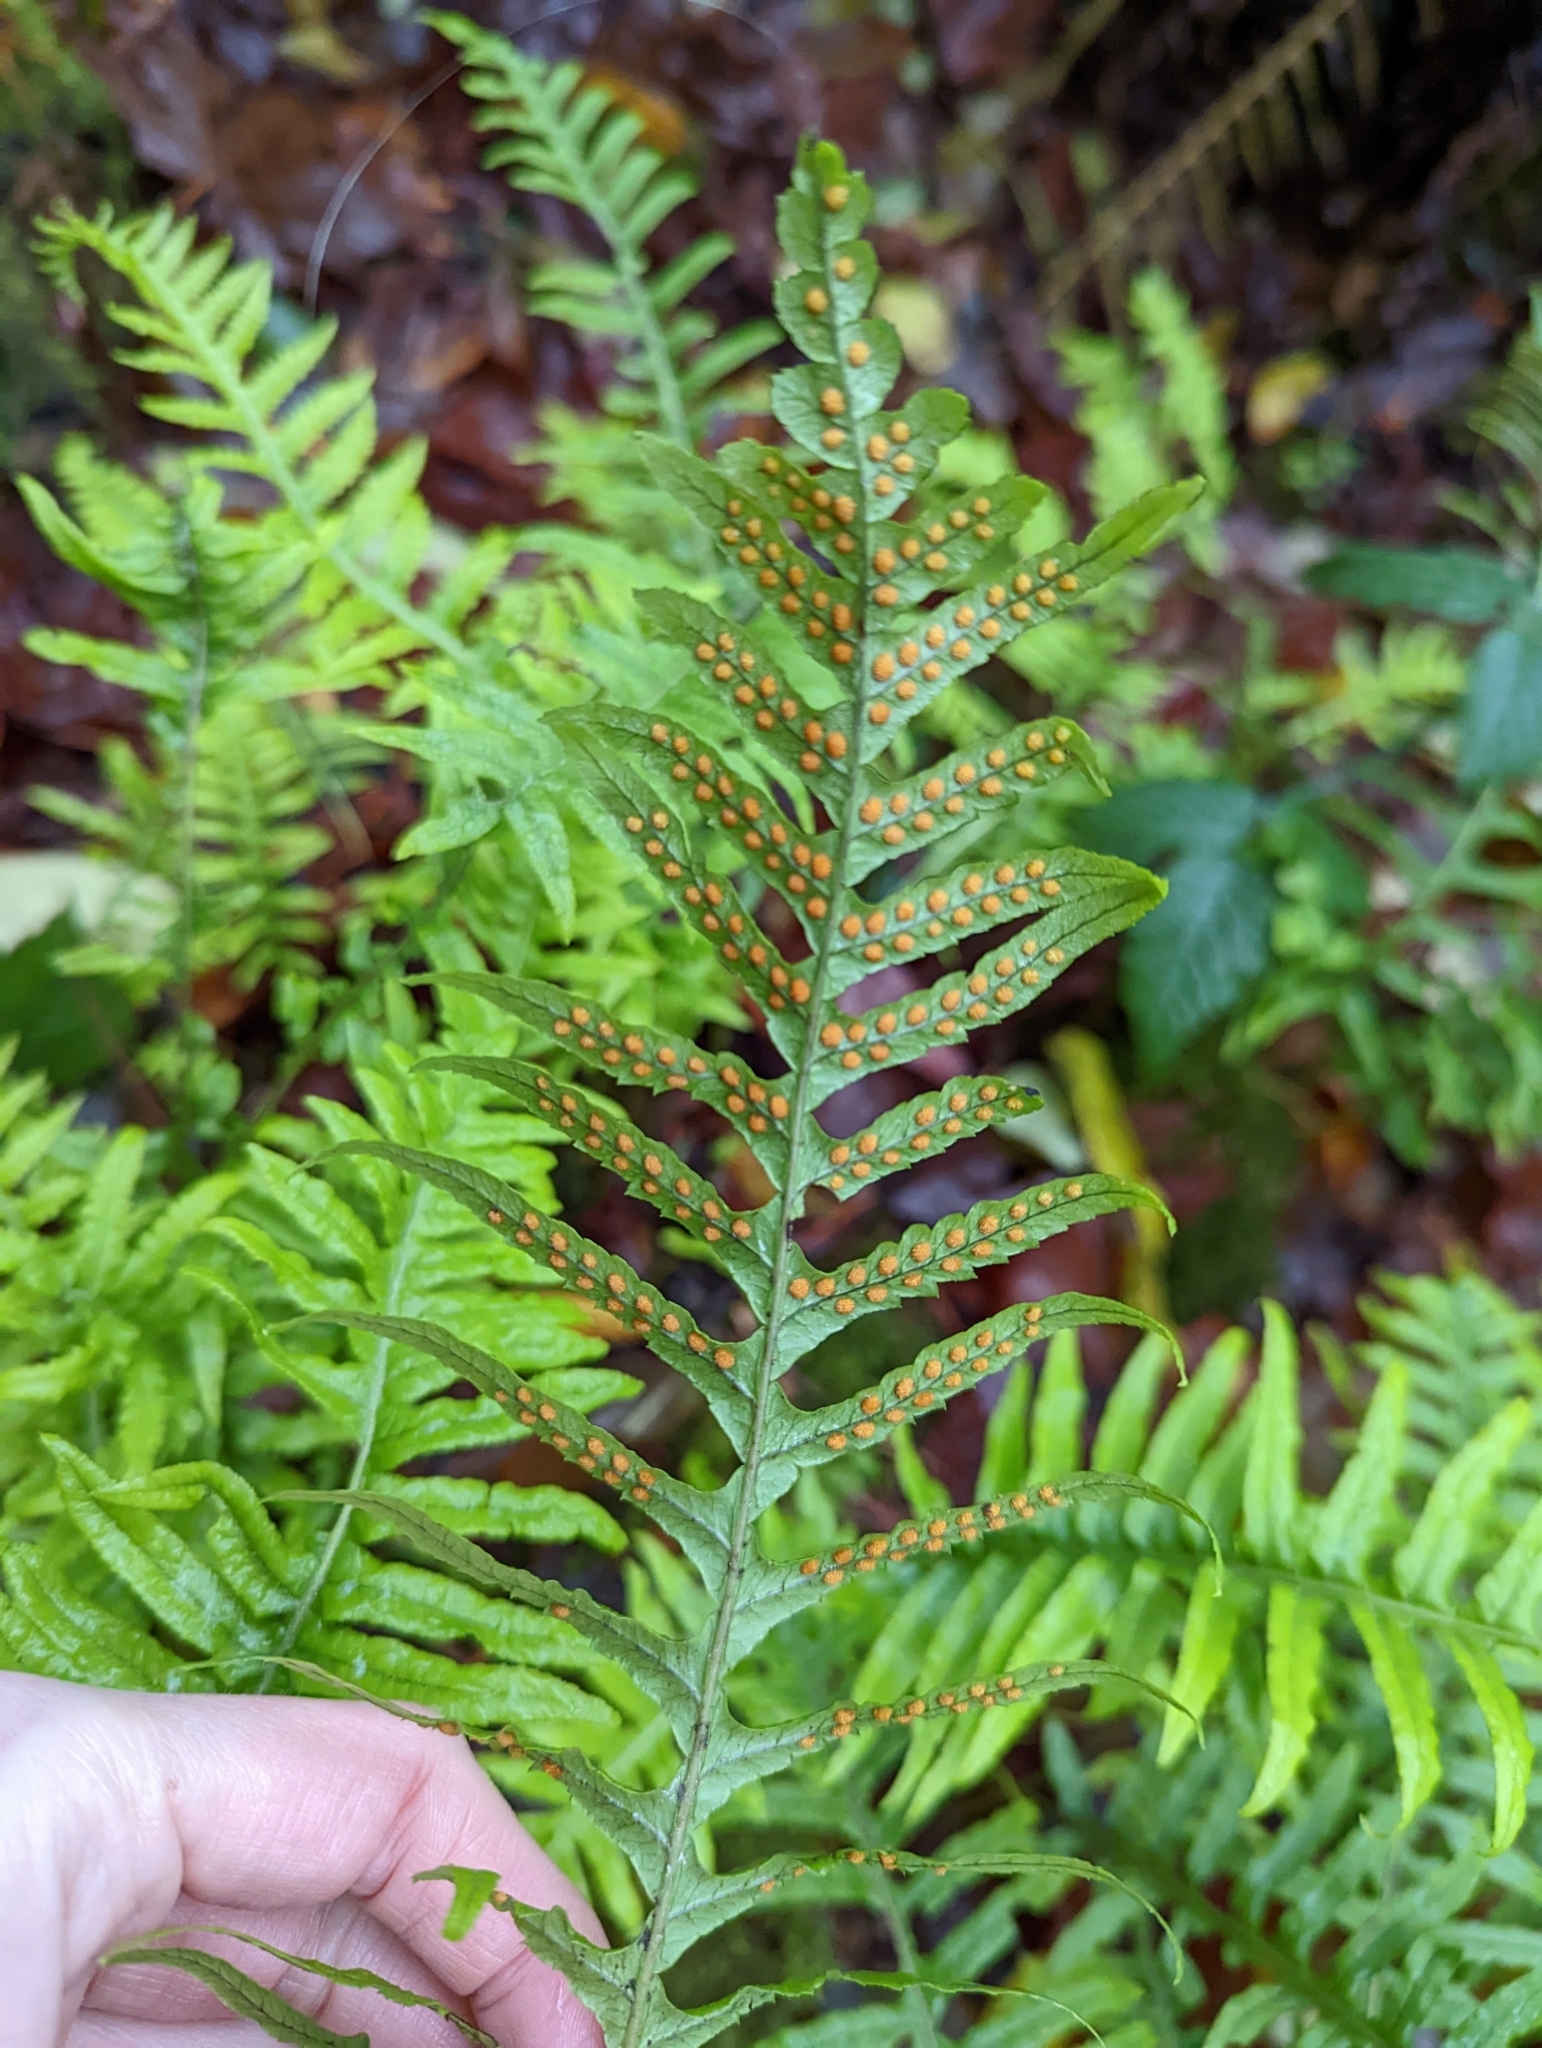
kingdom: Plantae
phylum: Tracheophyta
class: Polypodiopsida
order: Polypodiales
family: Polypodiaceae
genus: Polypodium
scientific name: Polypodium glycyrrhiza
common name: Licorice fern
